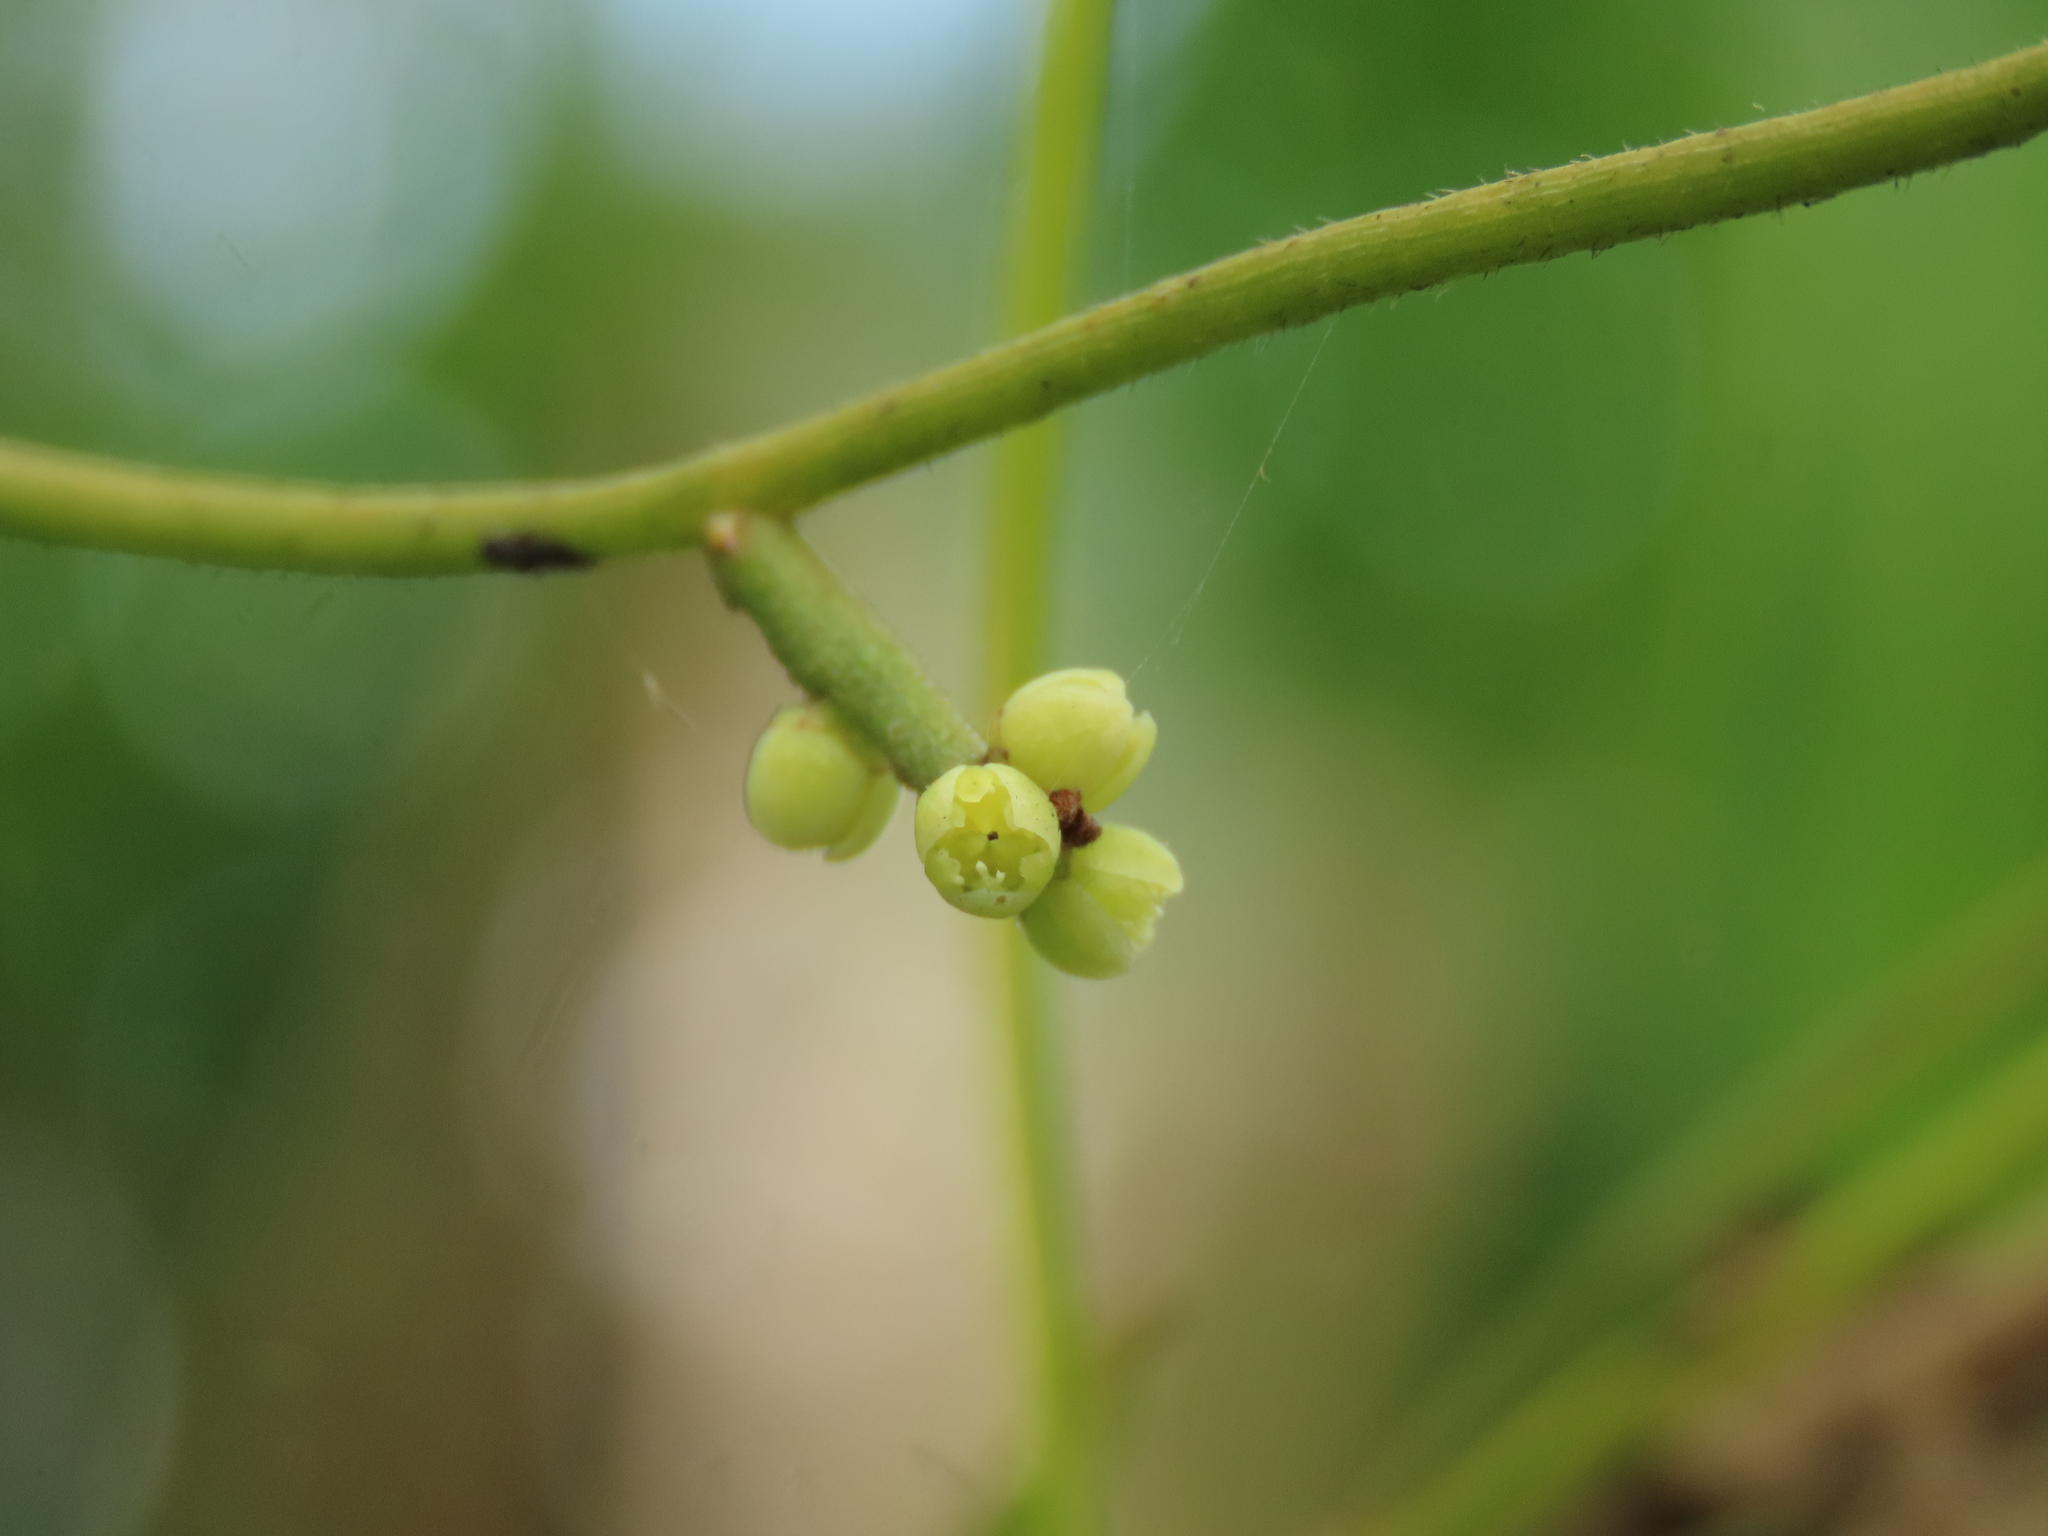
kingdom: Plantae
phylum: Tracheophyta
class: Magnoliopsida
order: Laurales
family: Lauraceae
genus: Cassytha
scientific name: Cassytha filiformis
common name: Dodder-laurel
